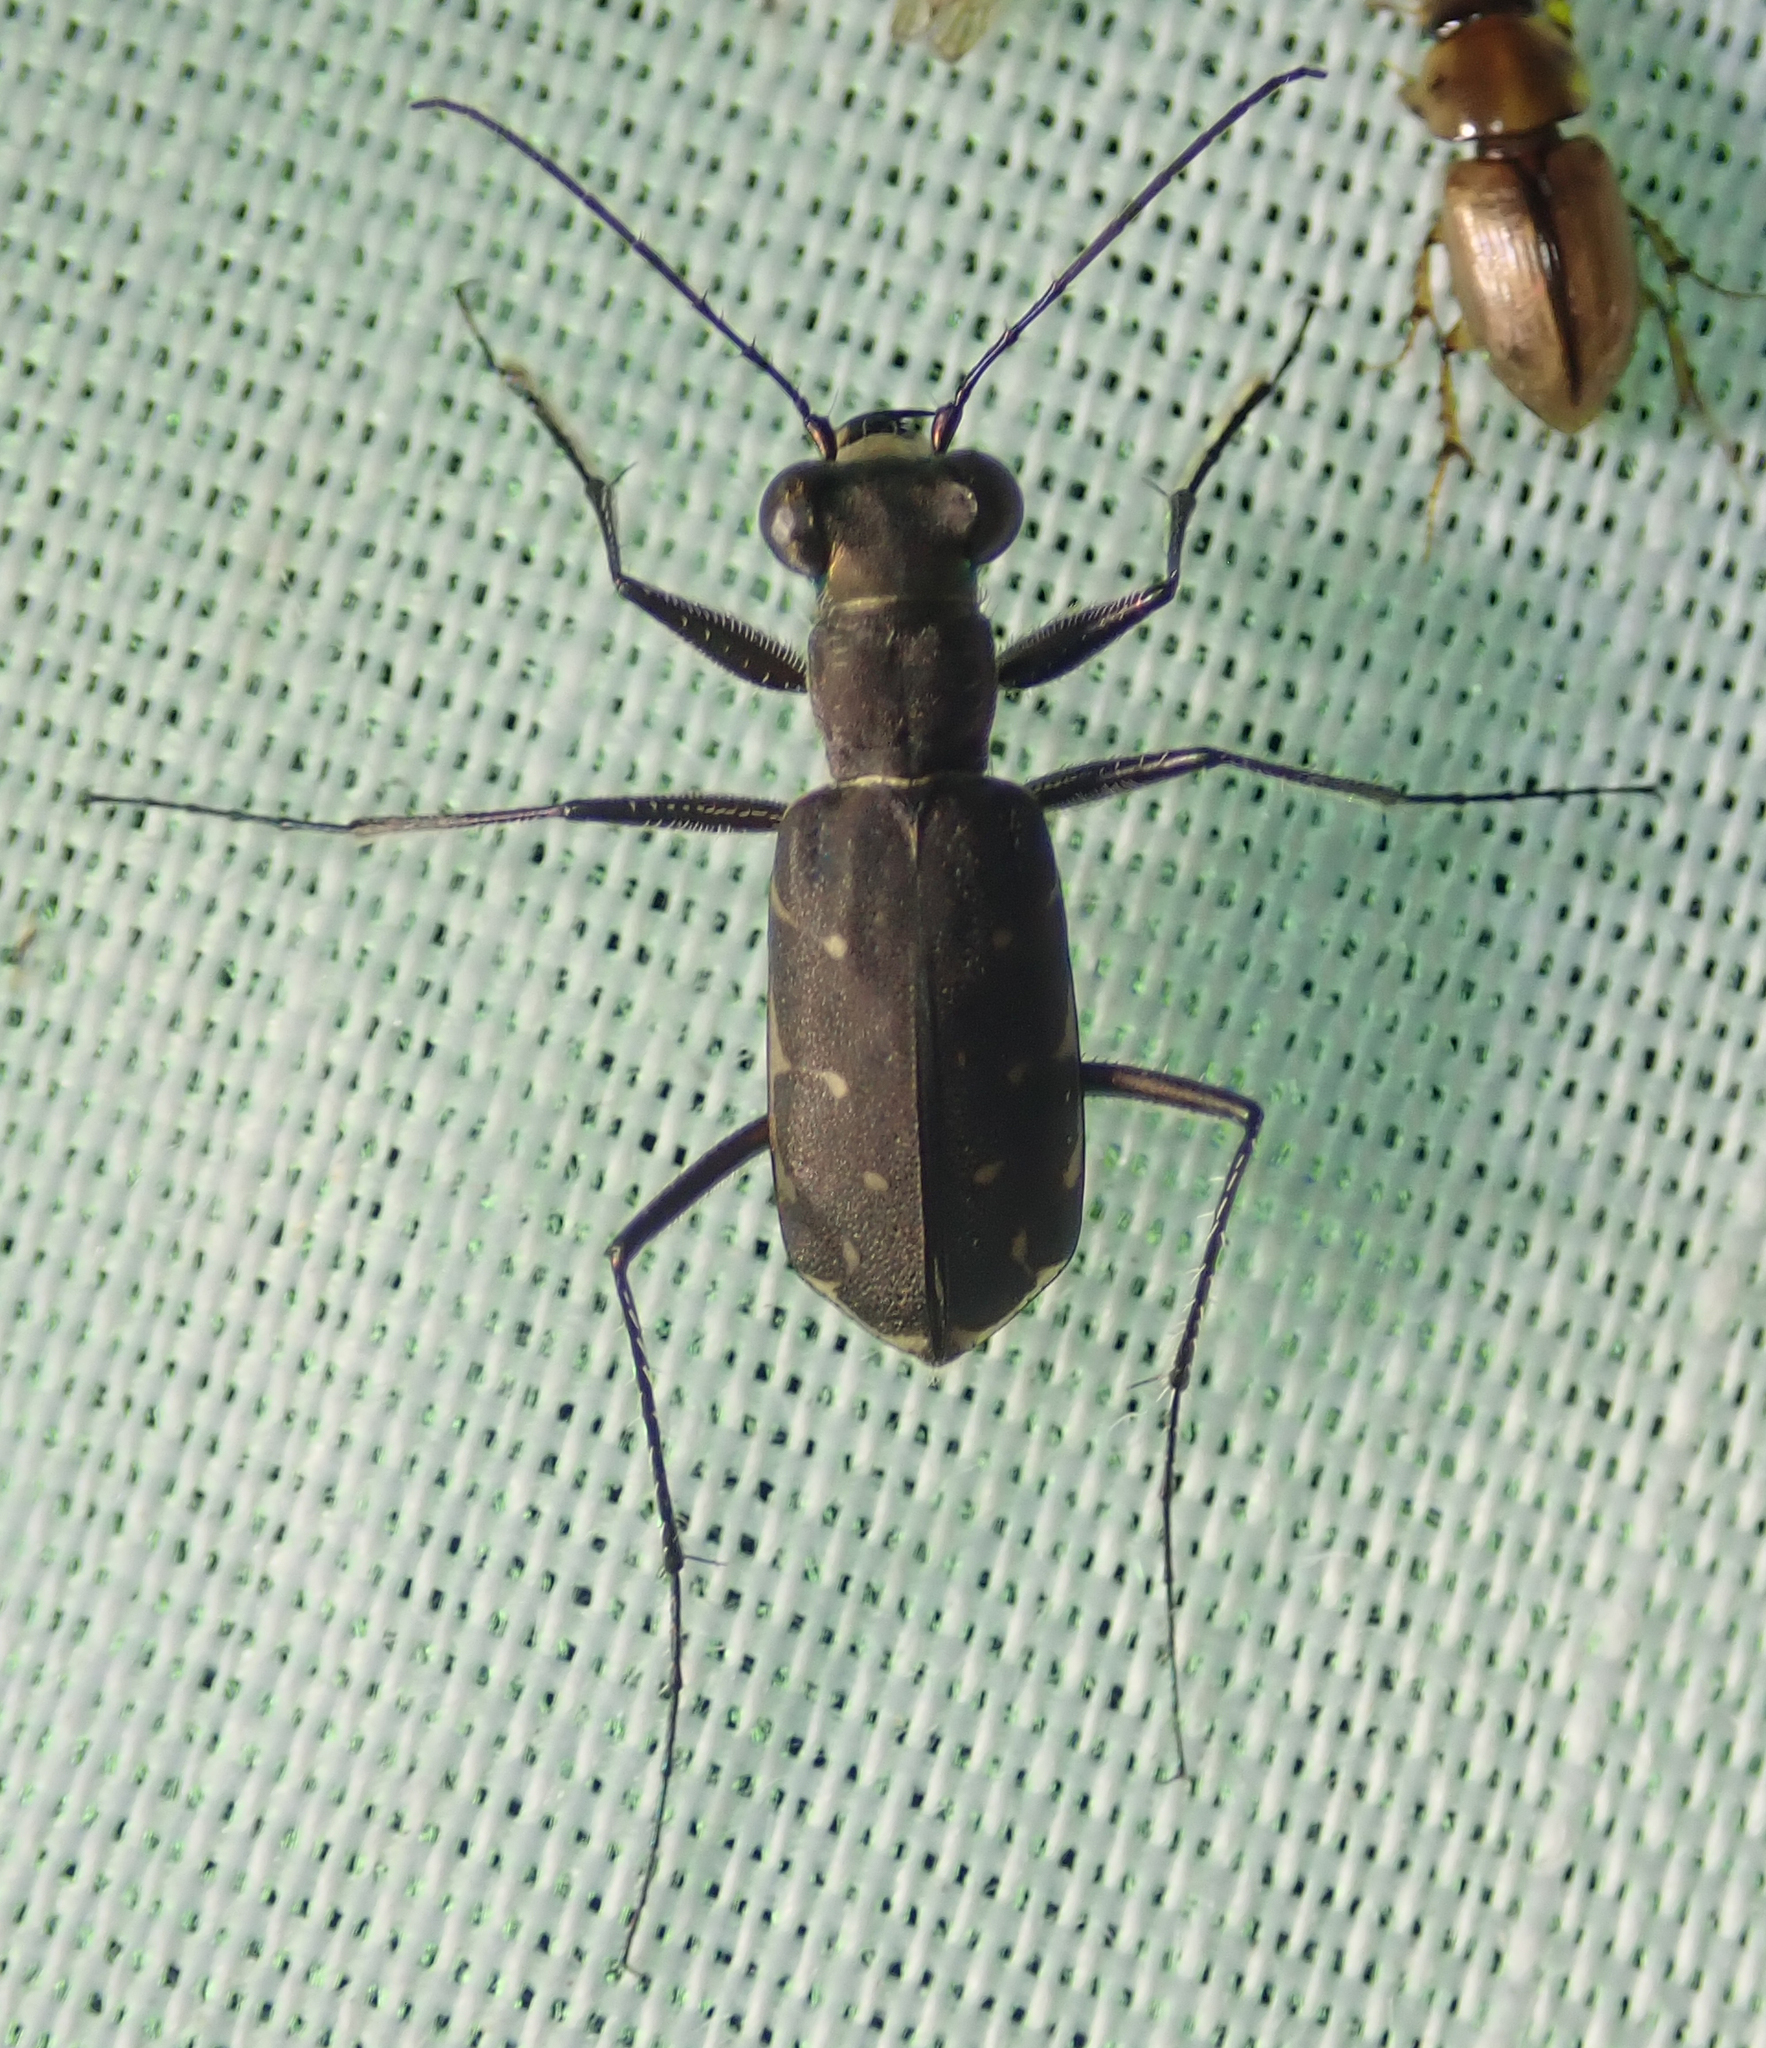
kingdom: Animalia
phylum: Arthropoda
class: Insecta
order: Coleoptera
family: Carabidae
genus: Myriochila
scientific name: Myriochila melancholica
